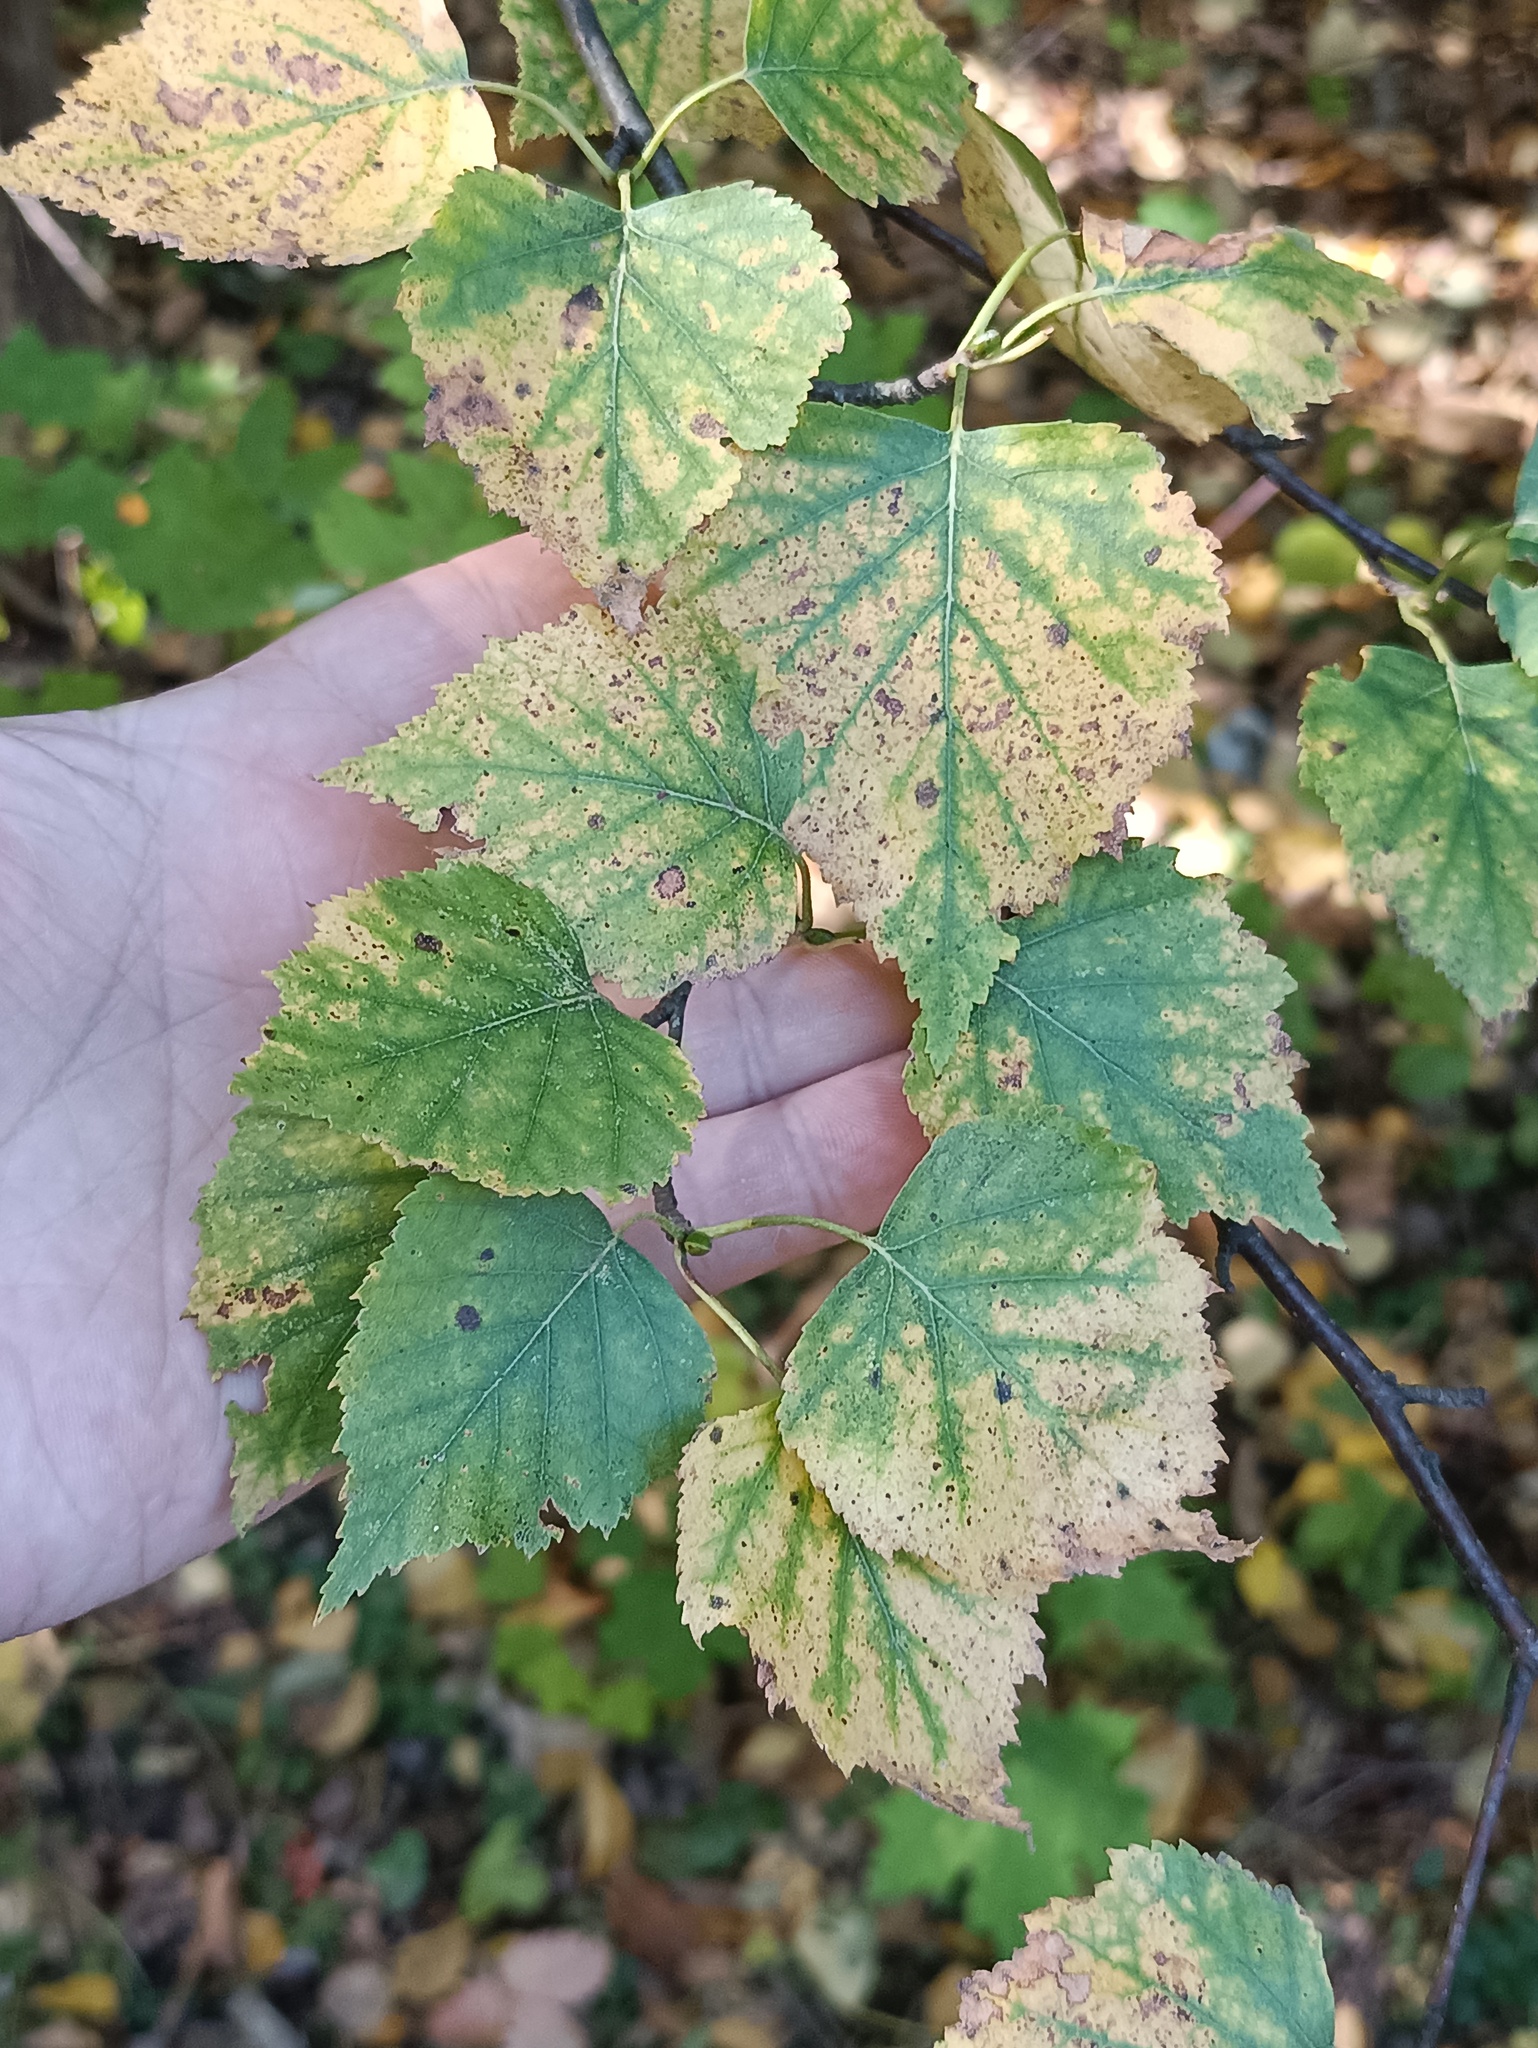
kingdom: Plantae
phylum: Tracheophyta
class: Magnoliopsida
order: Fagales
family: Betulaceae
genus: Betula
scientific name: Betula pendula
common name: Silver birch
